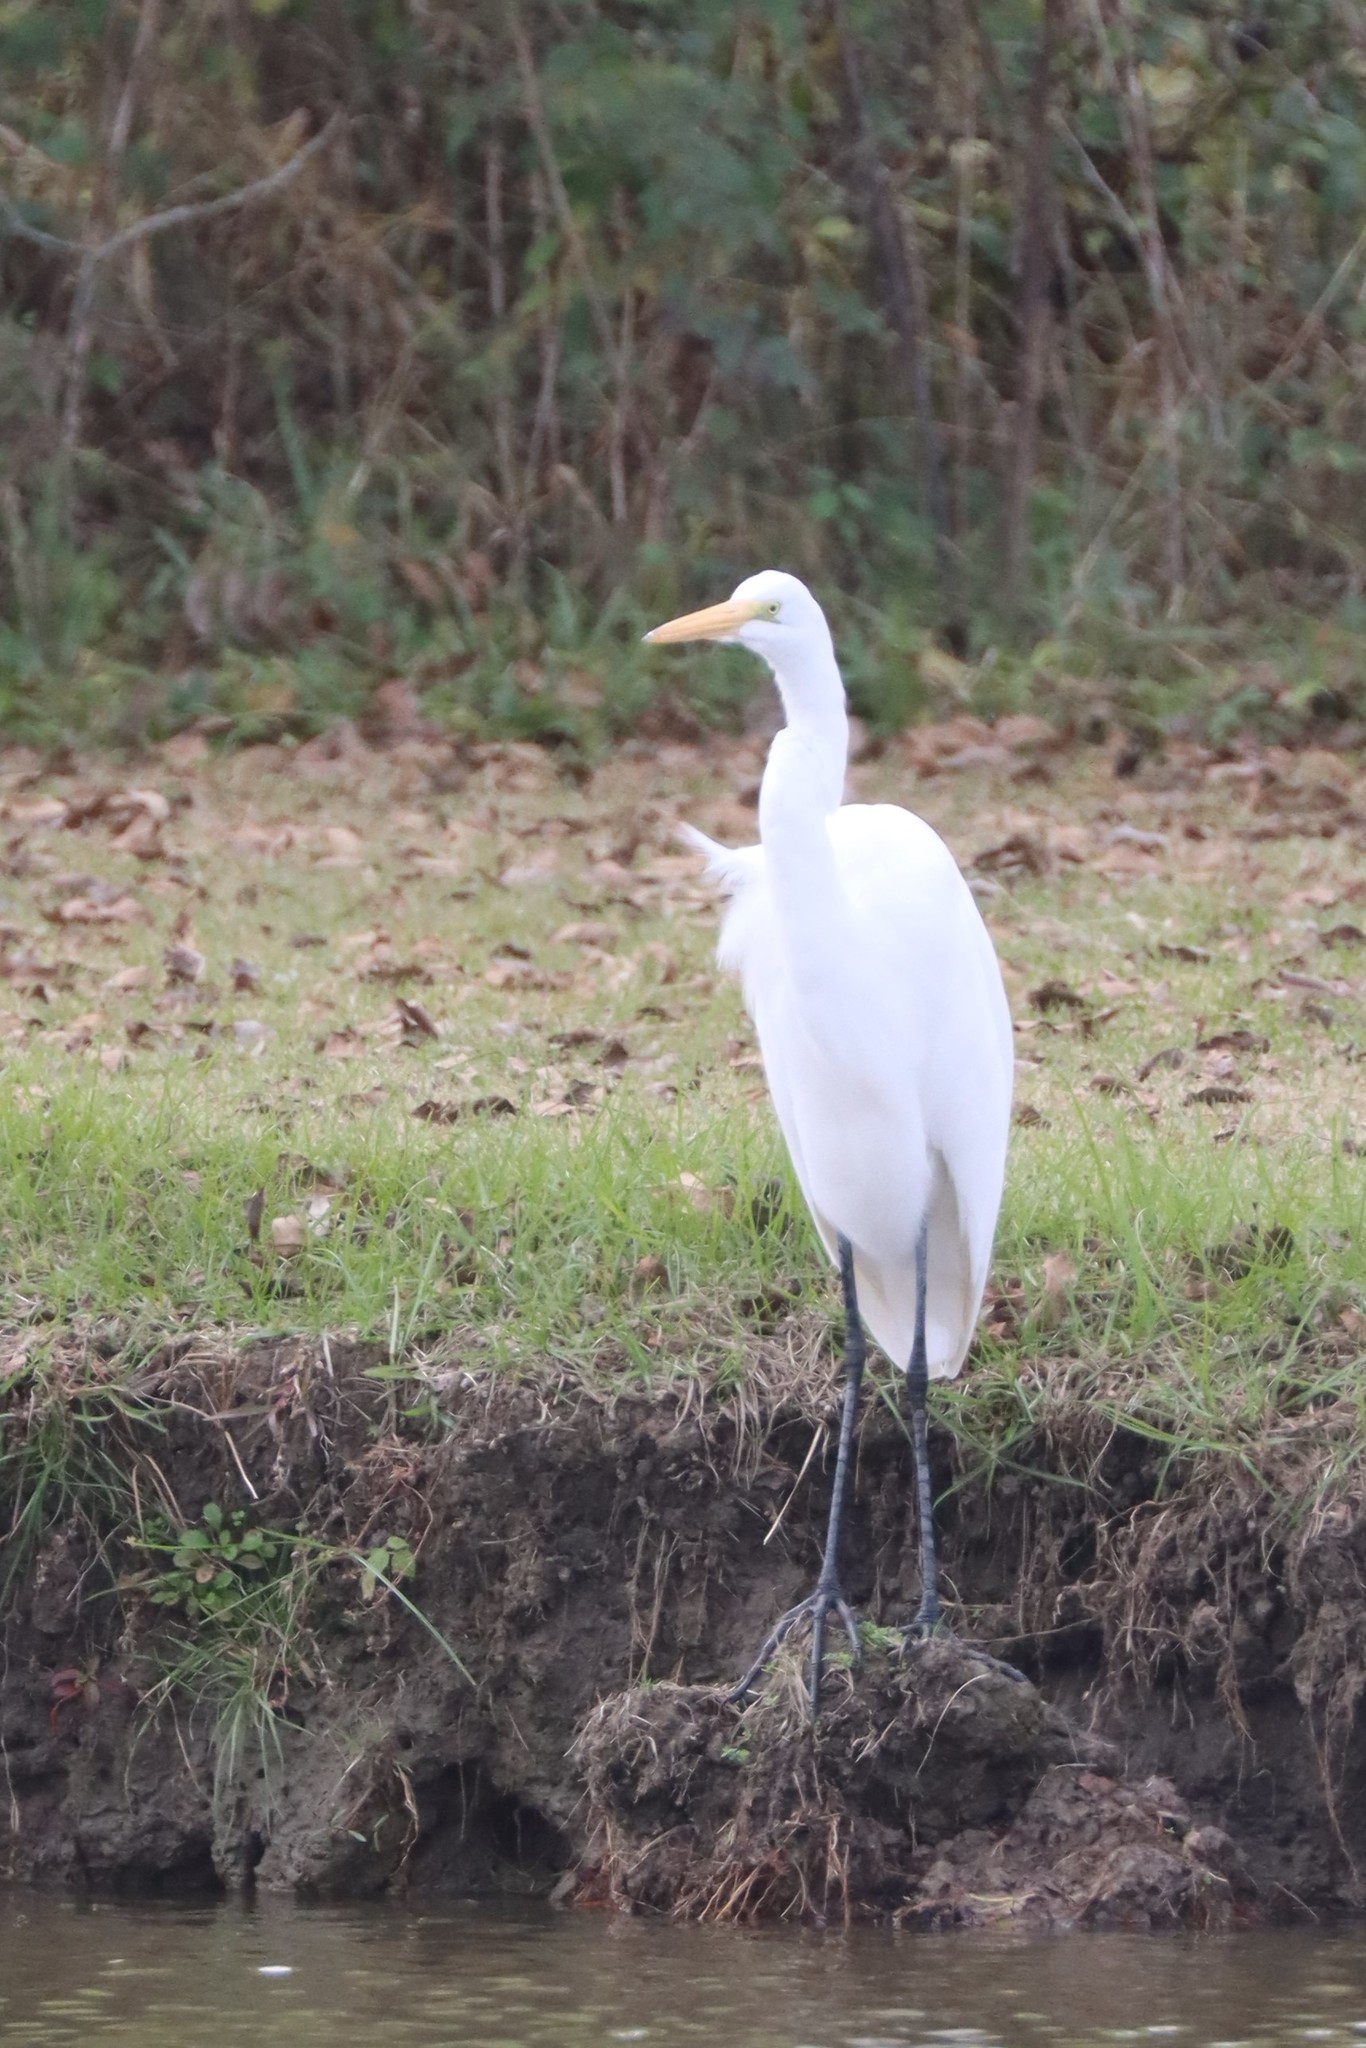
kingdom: Animalia
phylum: Chordata
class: Aves
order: Pelecaniformes
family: Ardeidae
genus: Ardea
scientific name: Ardea alba
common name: Great egret
